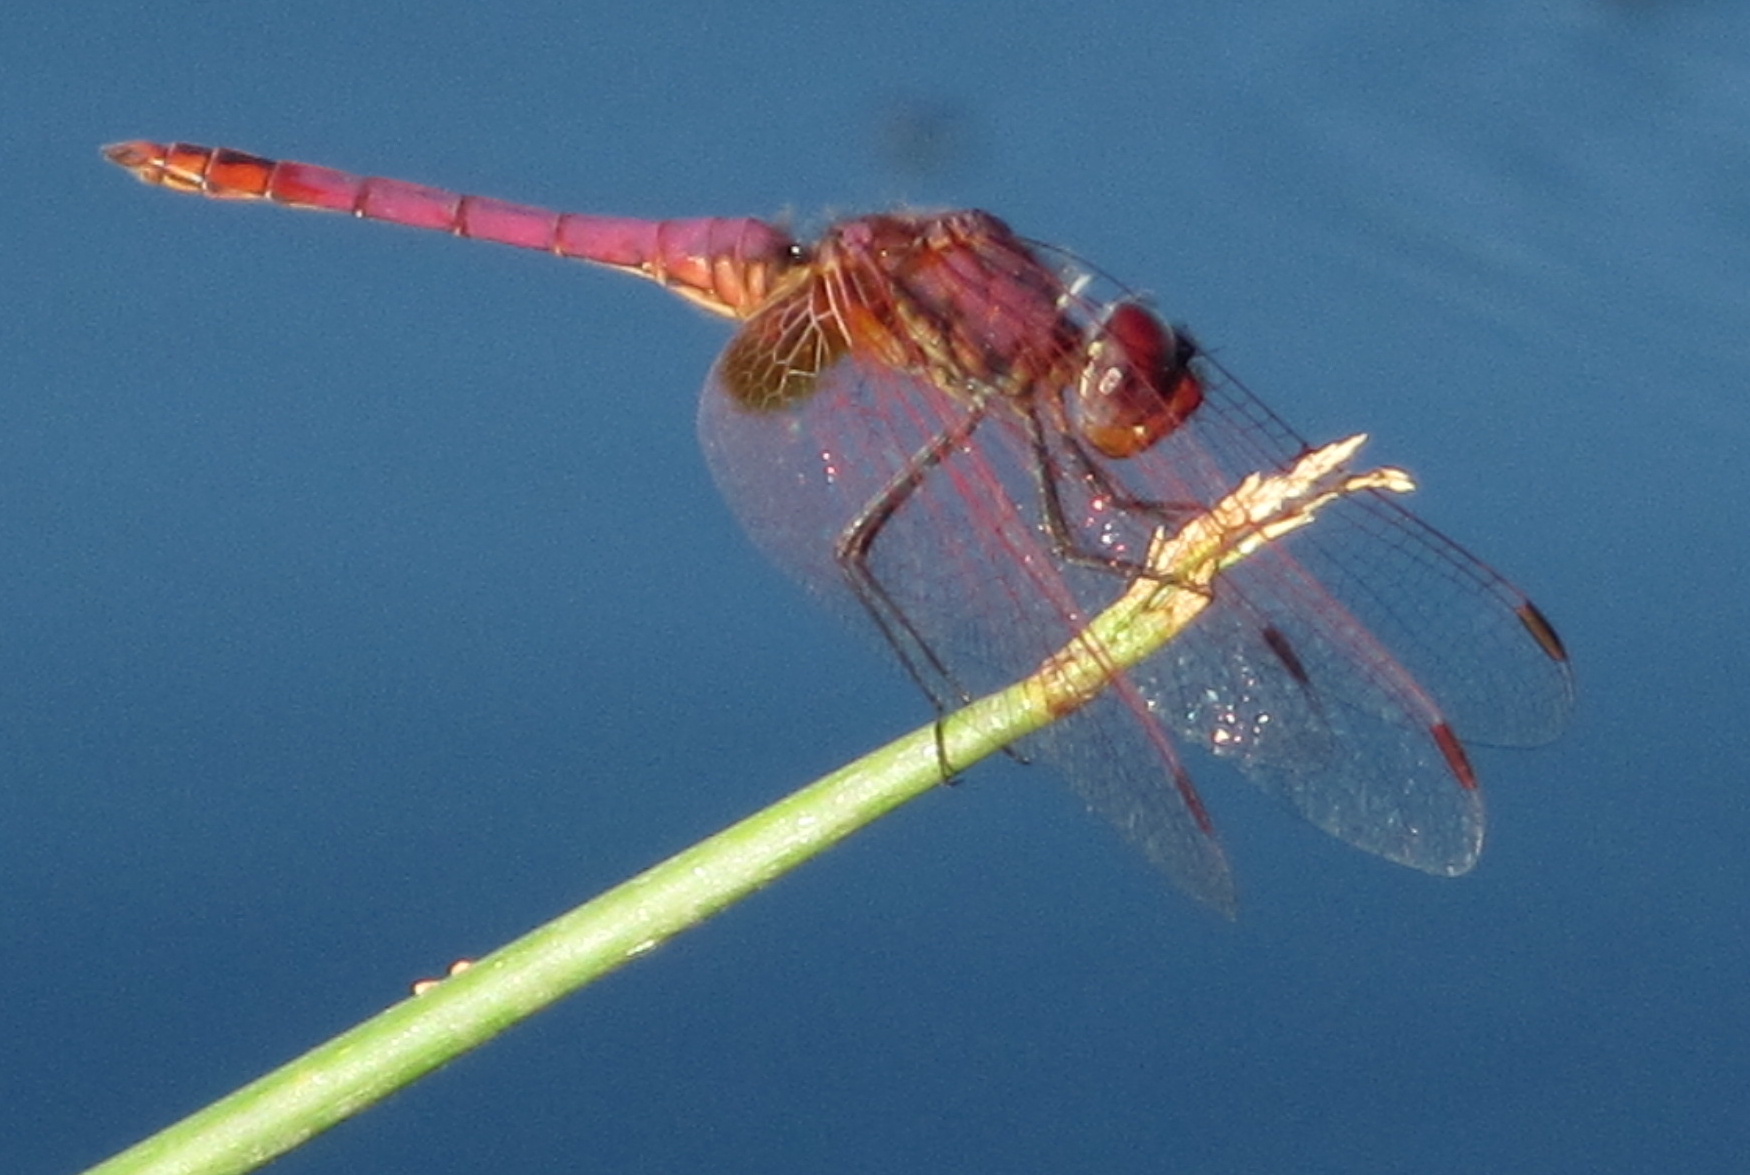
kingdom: Animalia
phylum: Arthropoda
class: Insecta
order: Odonata
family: Libellulidae
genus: Trithemis
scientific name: Trithemis annulata
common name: Violet dropwing
